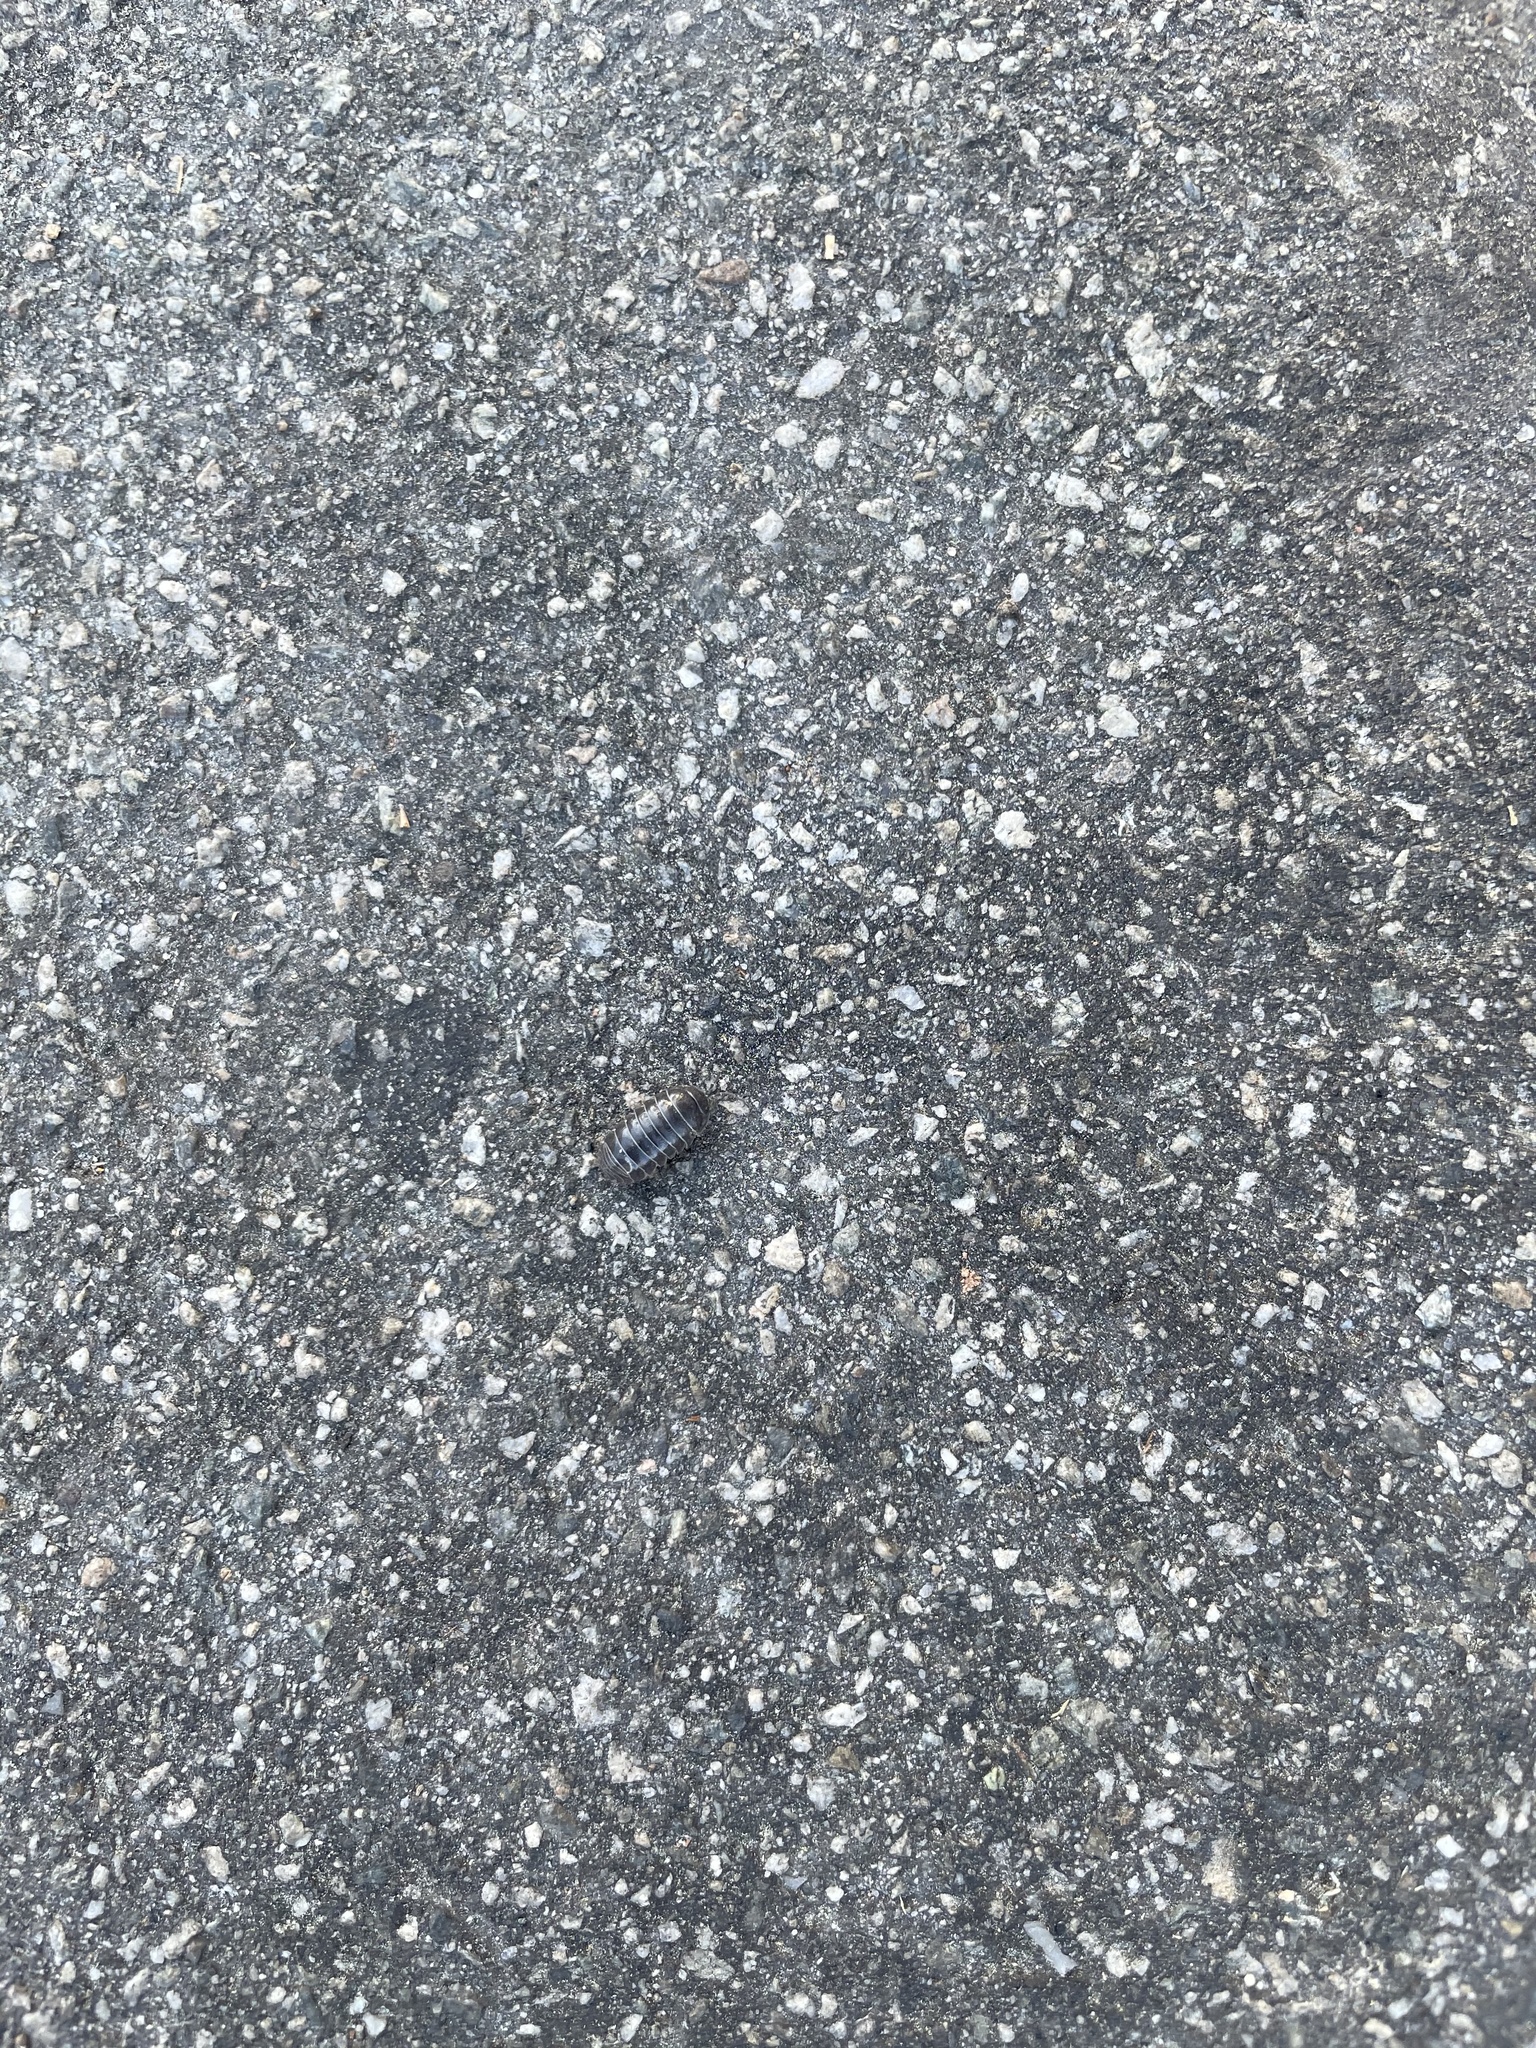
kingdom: Animalia
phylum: Arthropoda
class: Malacostraca
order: Isopoda
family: Armadillidiidae
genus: Armadillidium
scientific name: Armadillidium vulgare
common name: Common pill woodlouse
